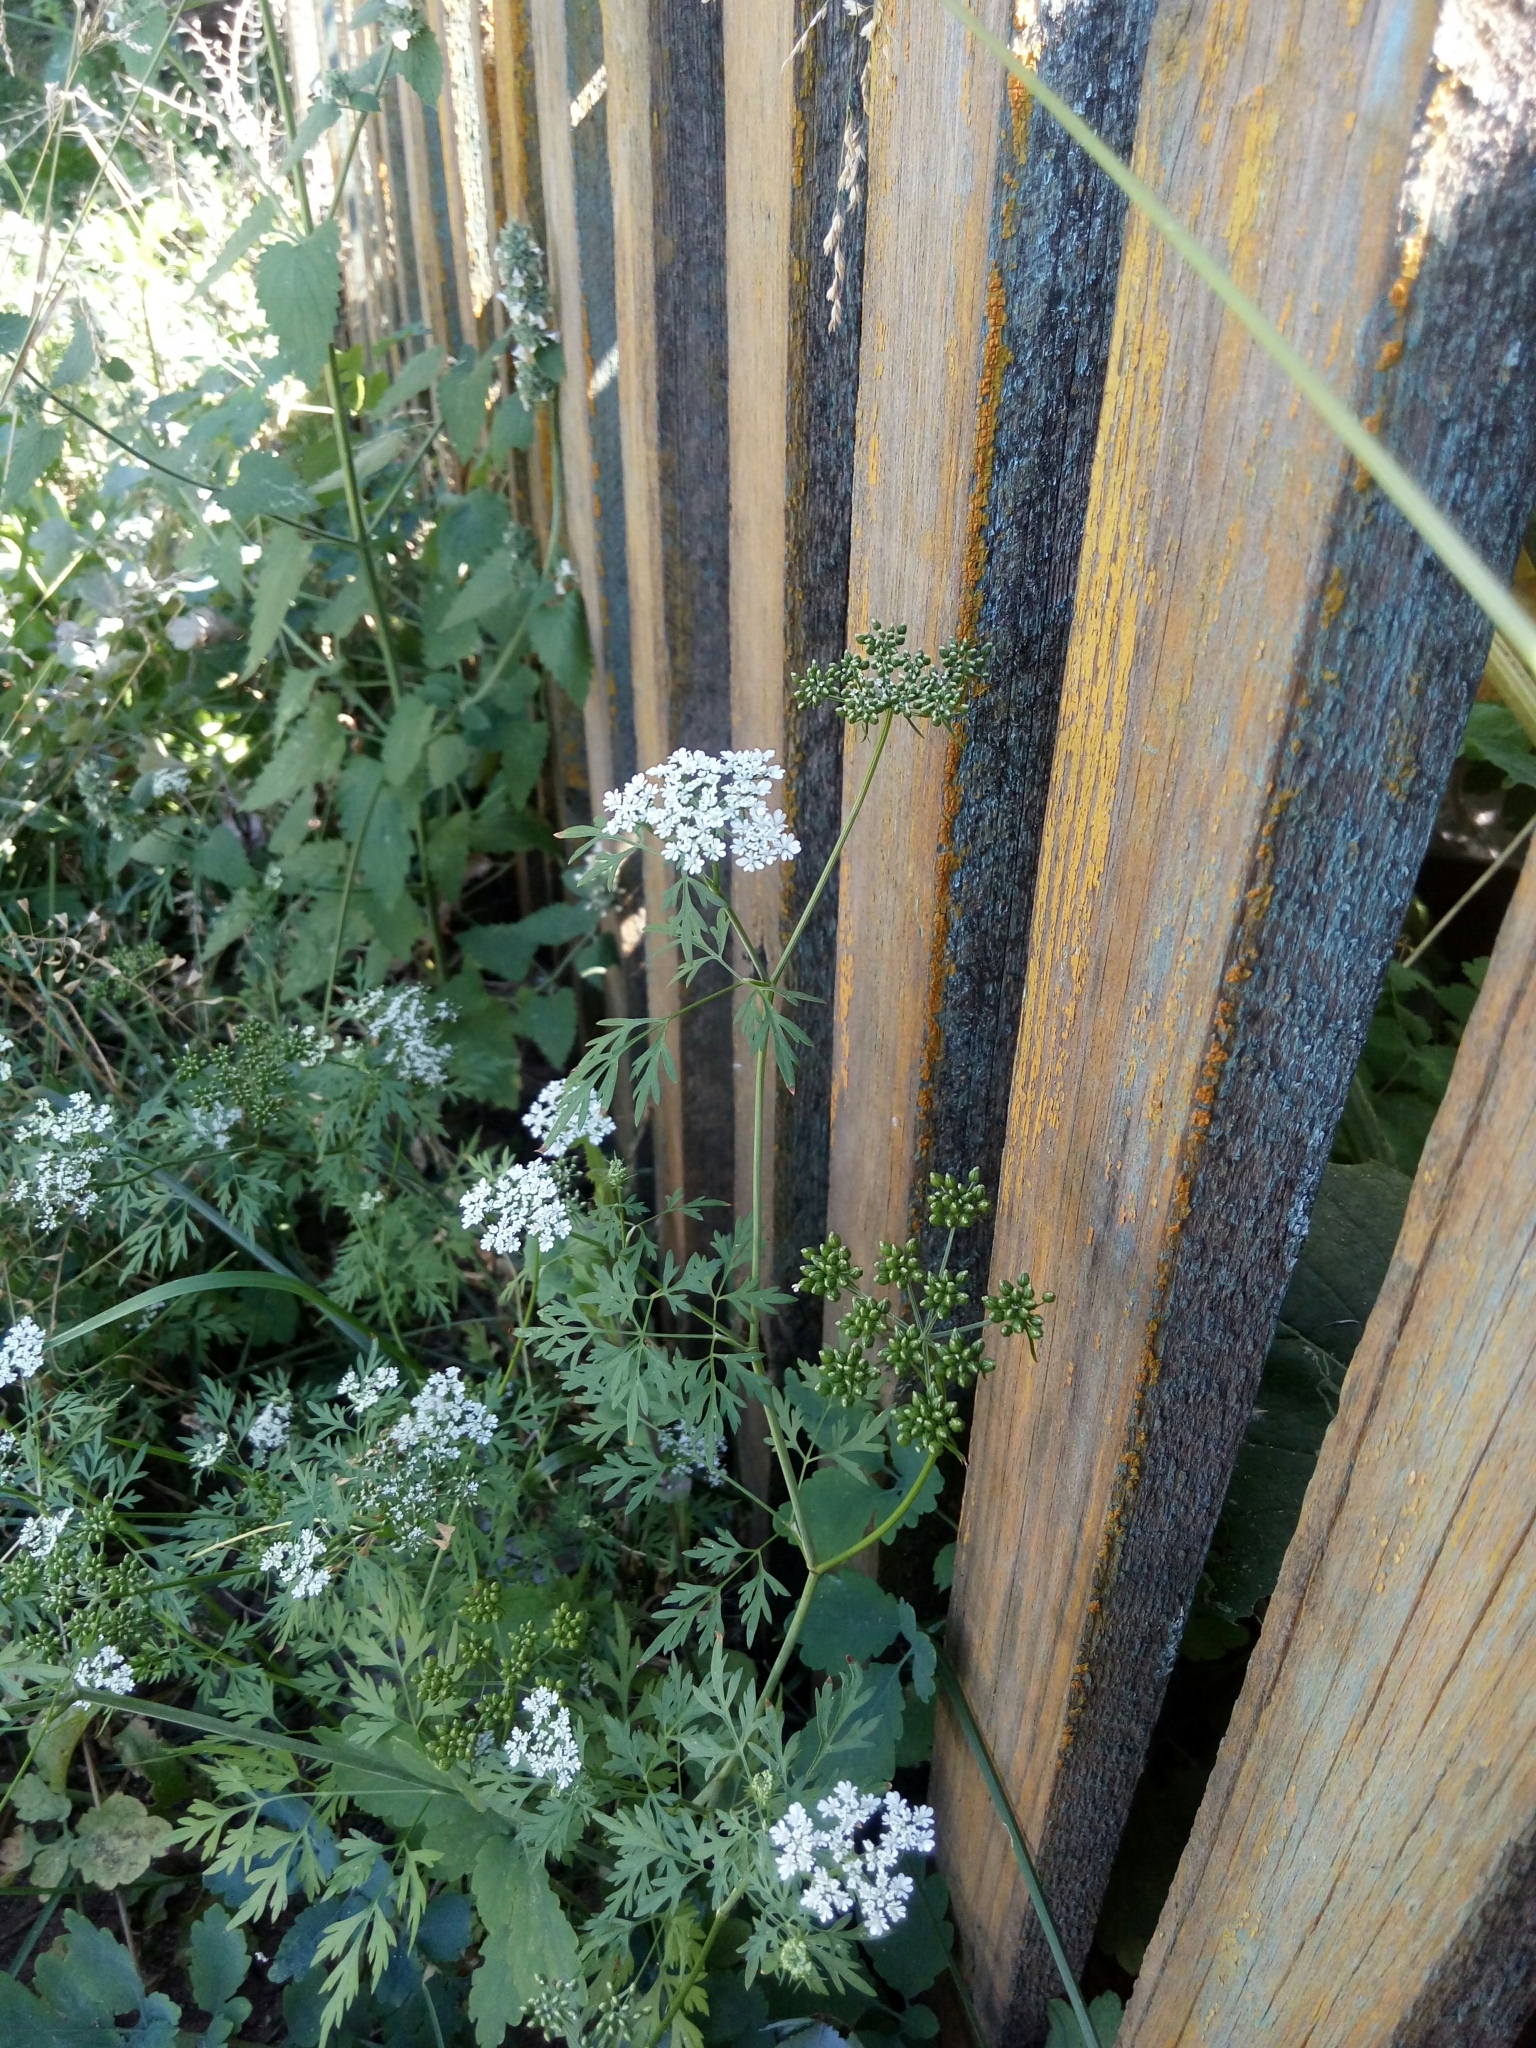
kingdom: Plantae
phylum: Tracheophyta
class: Magnoliopsida
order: Apiales
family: Apiaceae
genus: Aethusa
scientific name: Aethusa cynapium
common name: Fool's parsley
